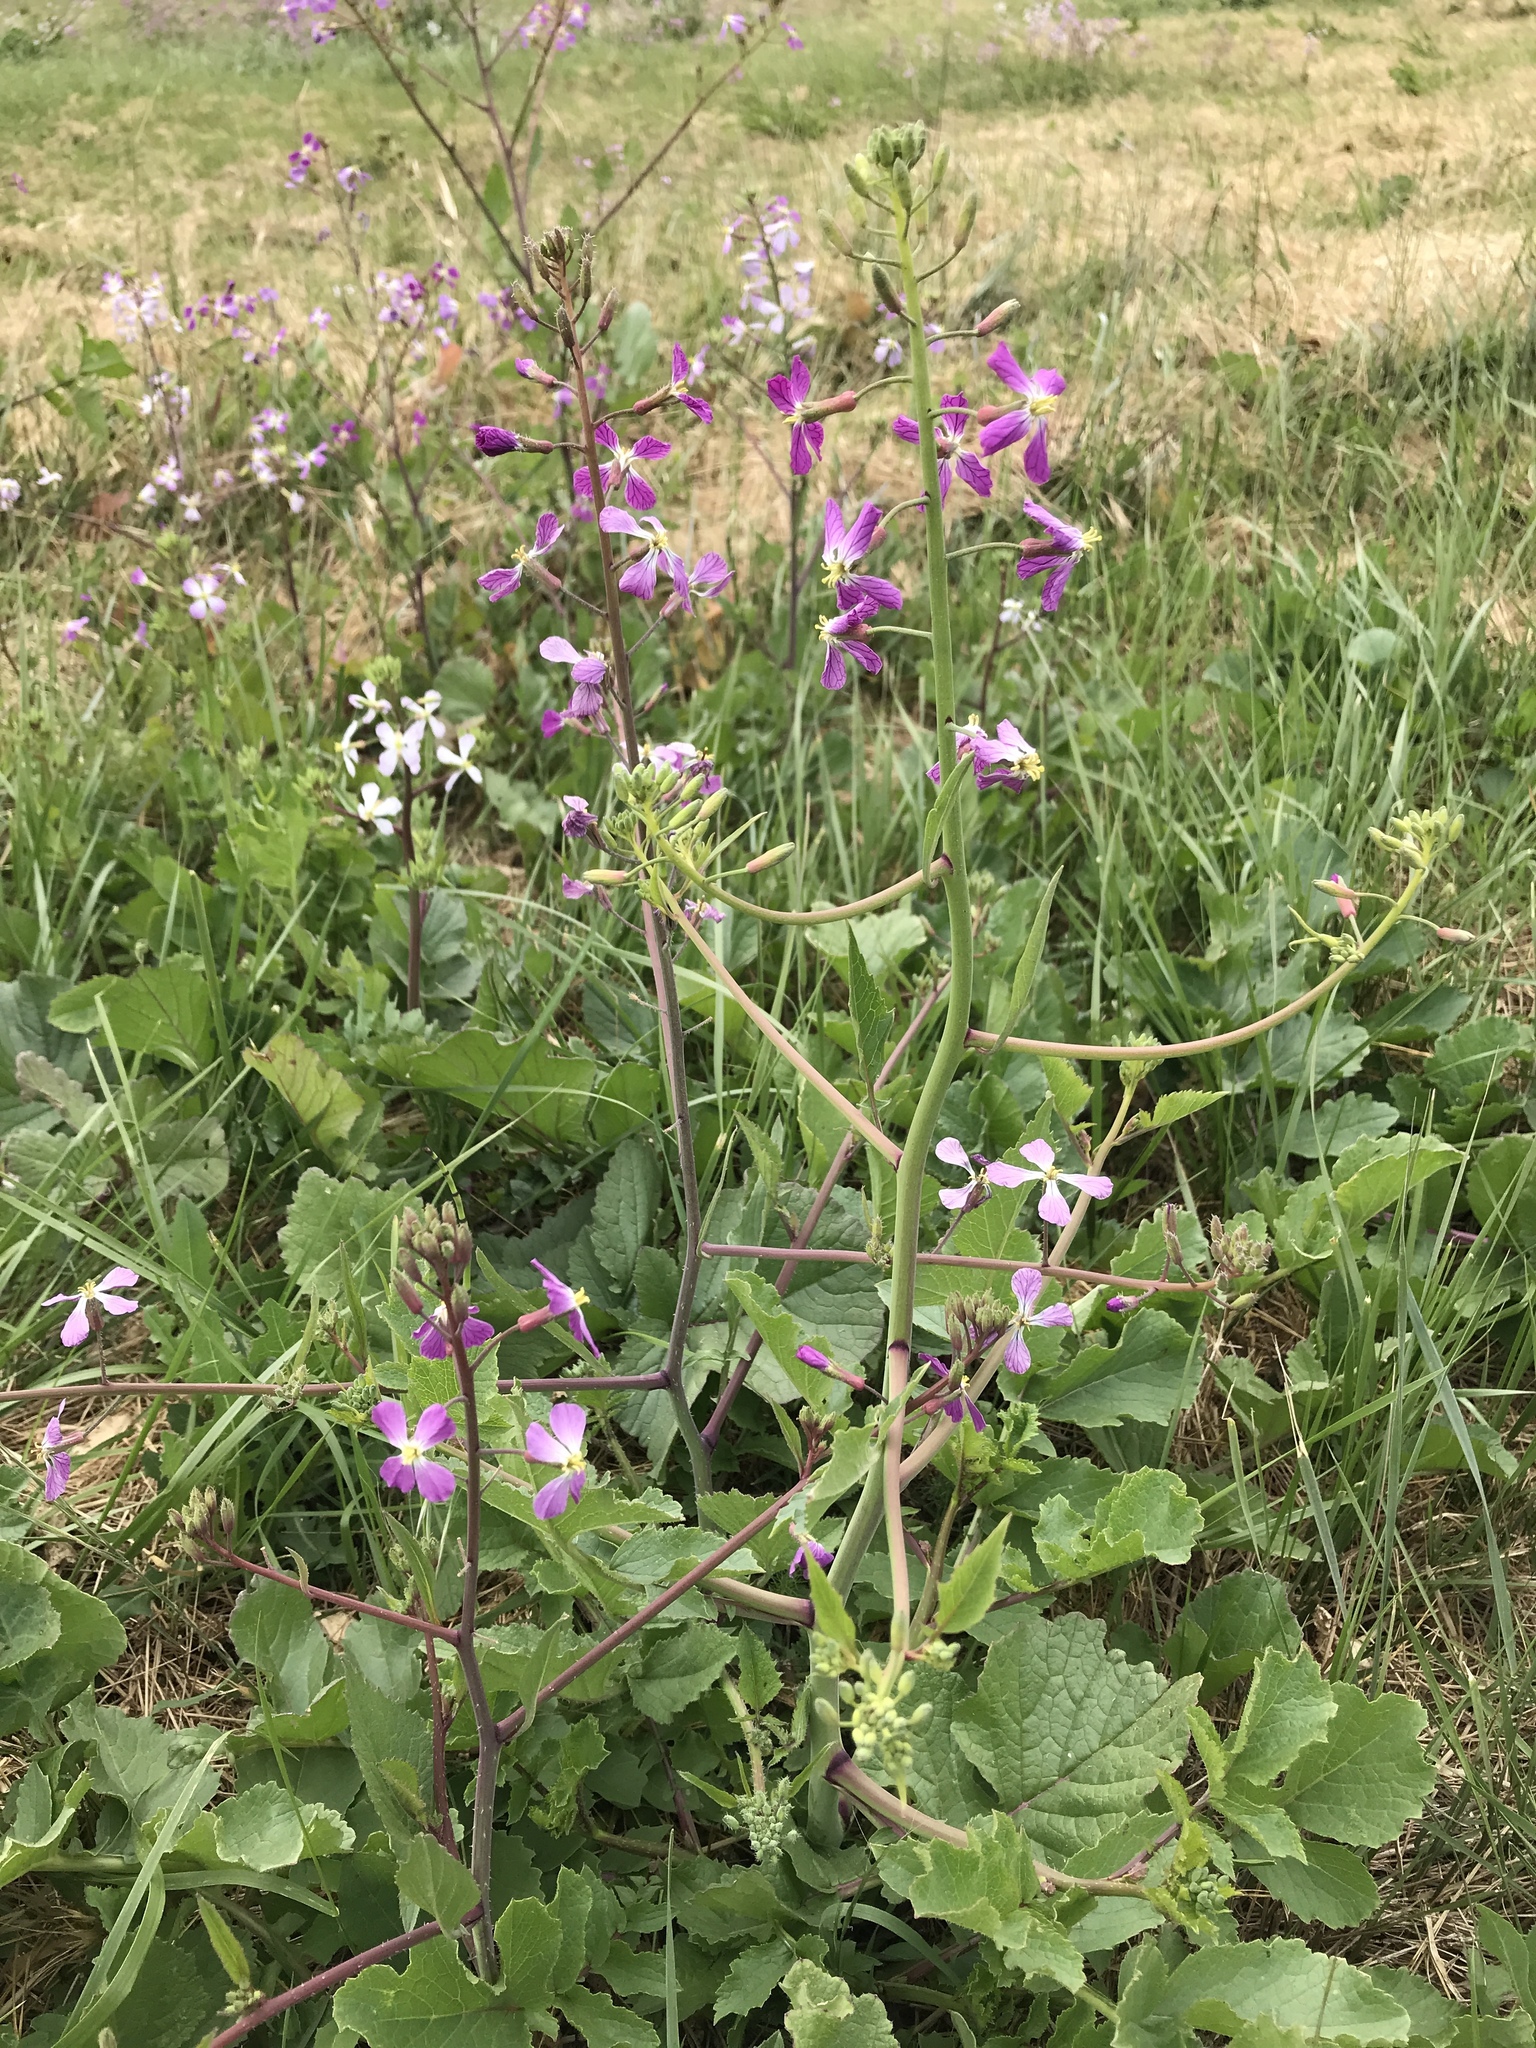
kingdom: Plantae
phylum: Tracheophyta
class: Magnoliopsida
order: Brassicales
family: Brassicaceae
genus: Raphanus
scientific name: Raphanus sativus
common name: Cultivated radish
